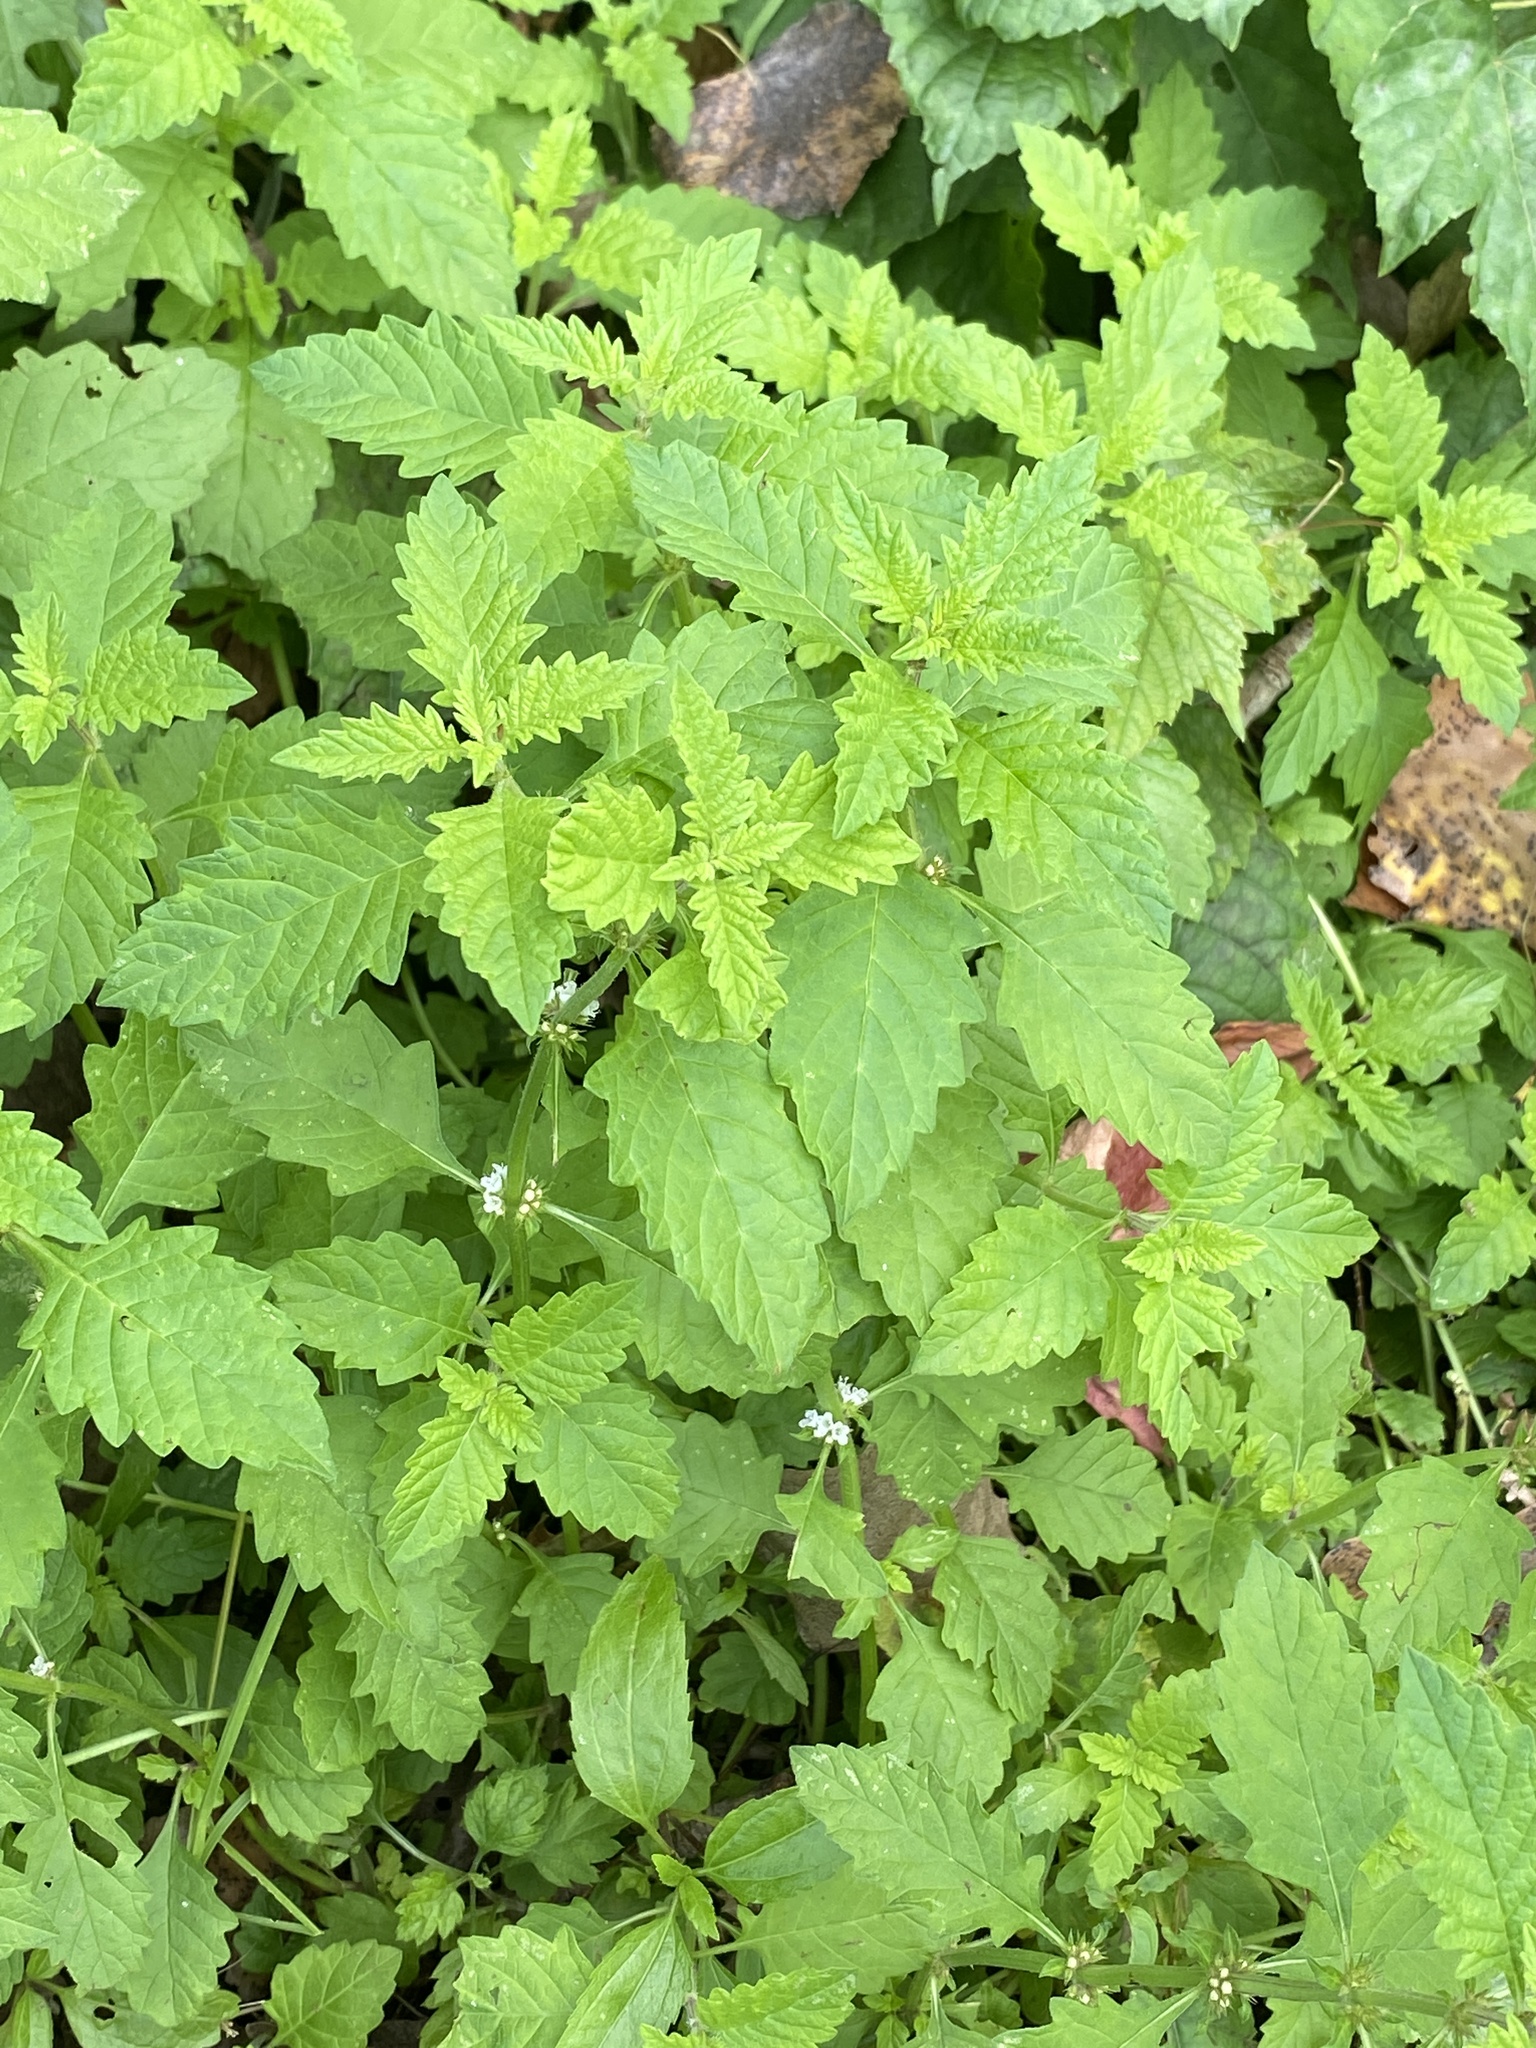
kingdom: Plantae
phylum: Tracheophyta
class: Magnoliopsida
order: Lamiales
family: Lamiaceae
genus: Lycopus
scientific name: Lycopus europaeus
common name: European bugleweed
